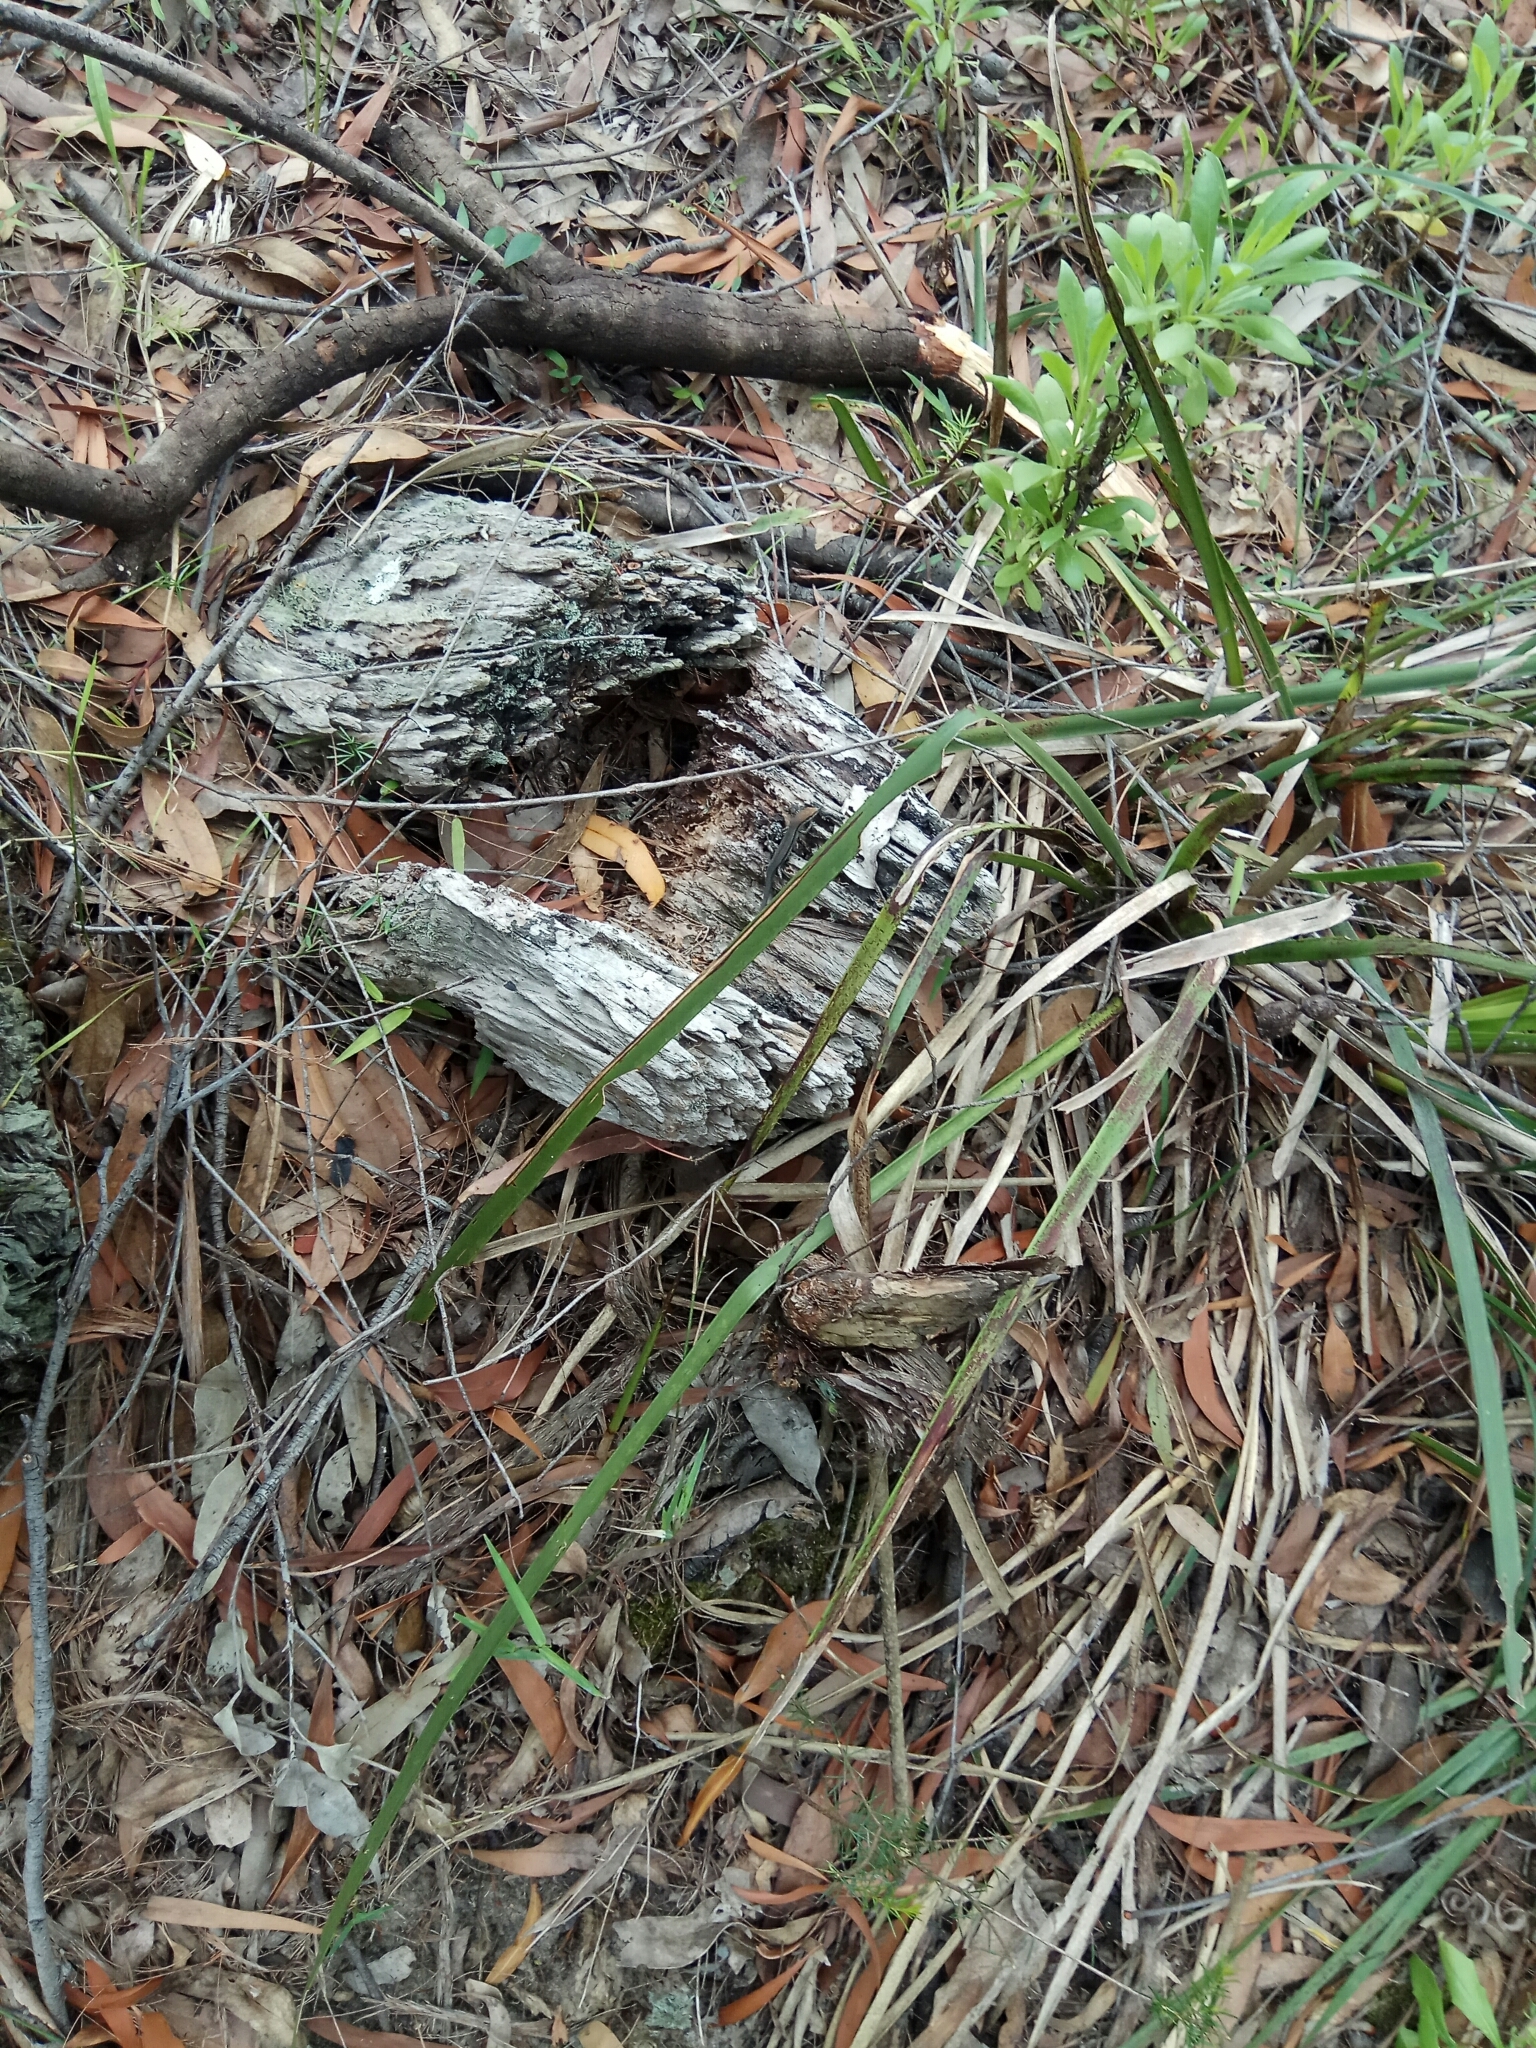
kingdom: Animalia
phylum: Chordata
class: Squamata
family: Scincidae
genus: Lampropholis
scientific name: Lampropholis guichenoti
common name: Garden skink
